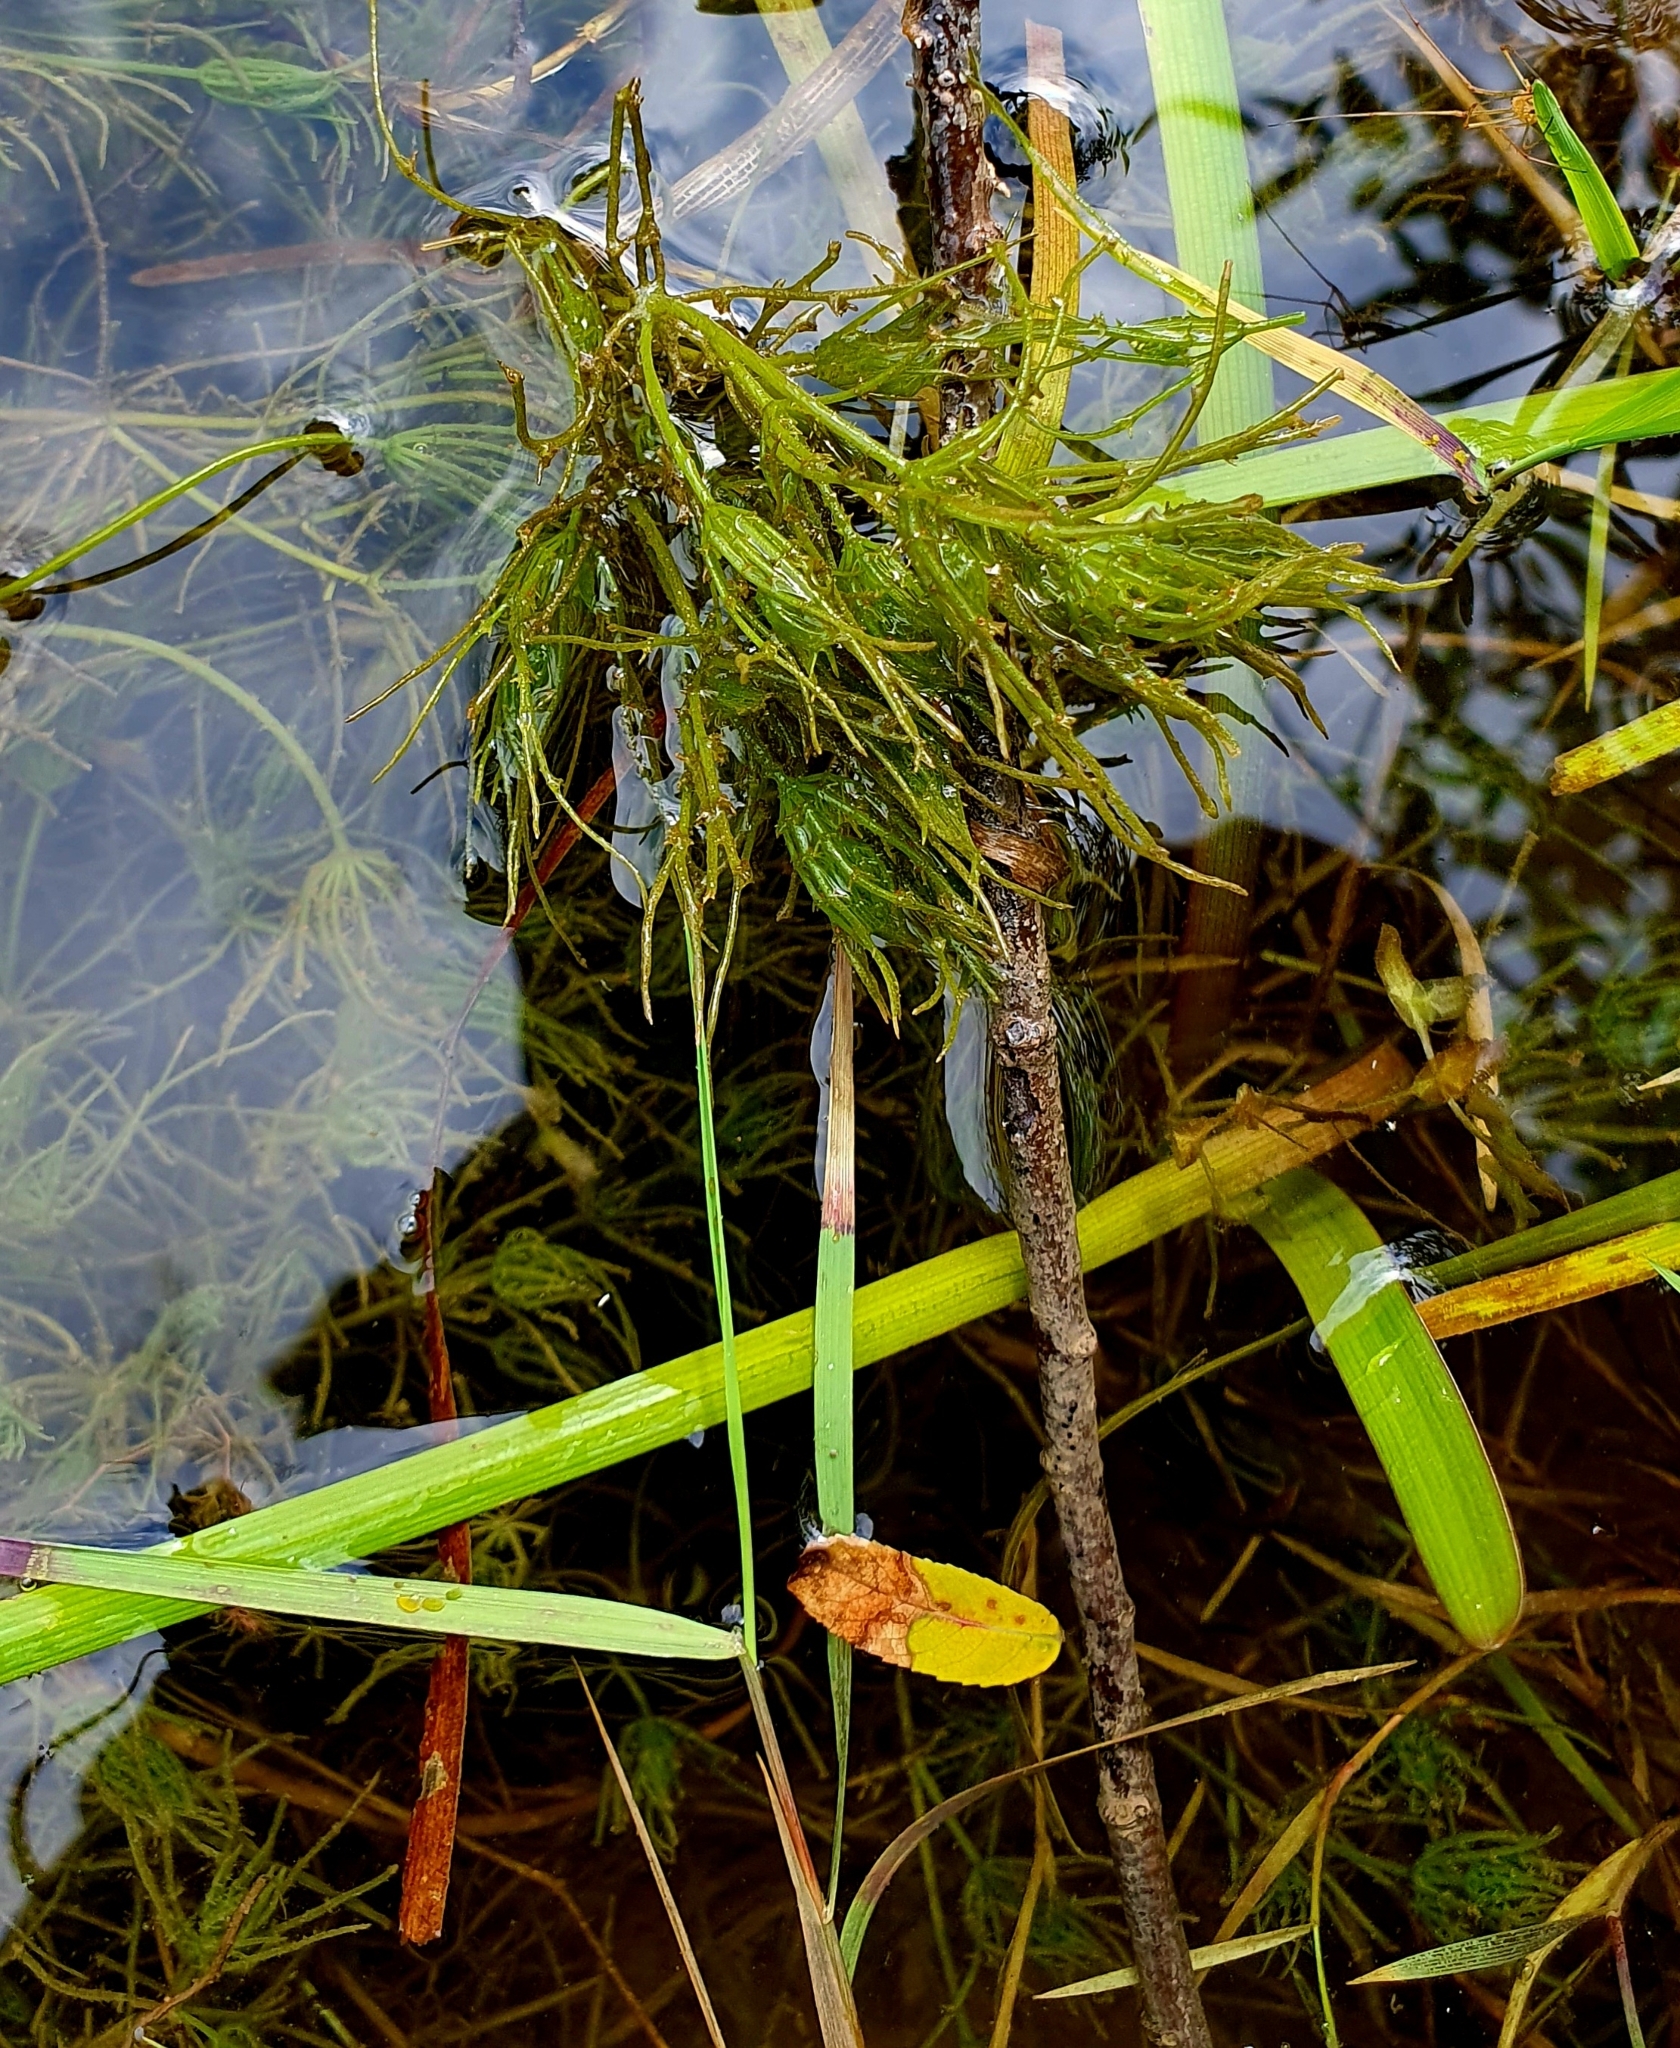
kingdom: Plantae
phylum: Charophyta
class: Charophyceae
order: Charales
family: Characeae
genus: Chara
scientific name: Chara vulgaris
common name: Common stonewort
